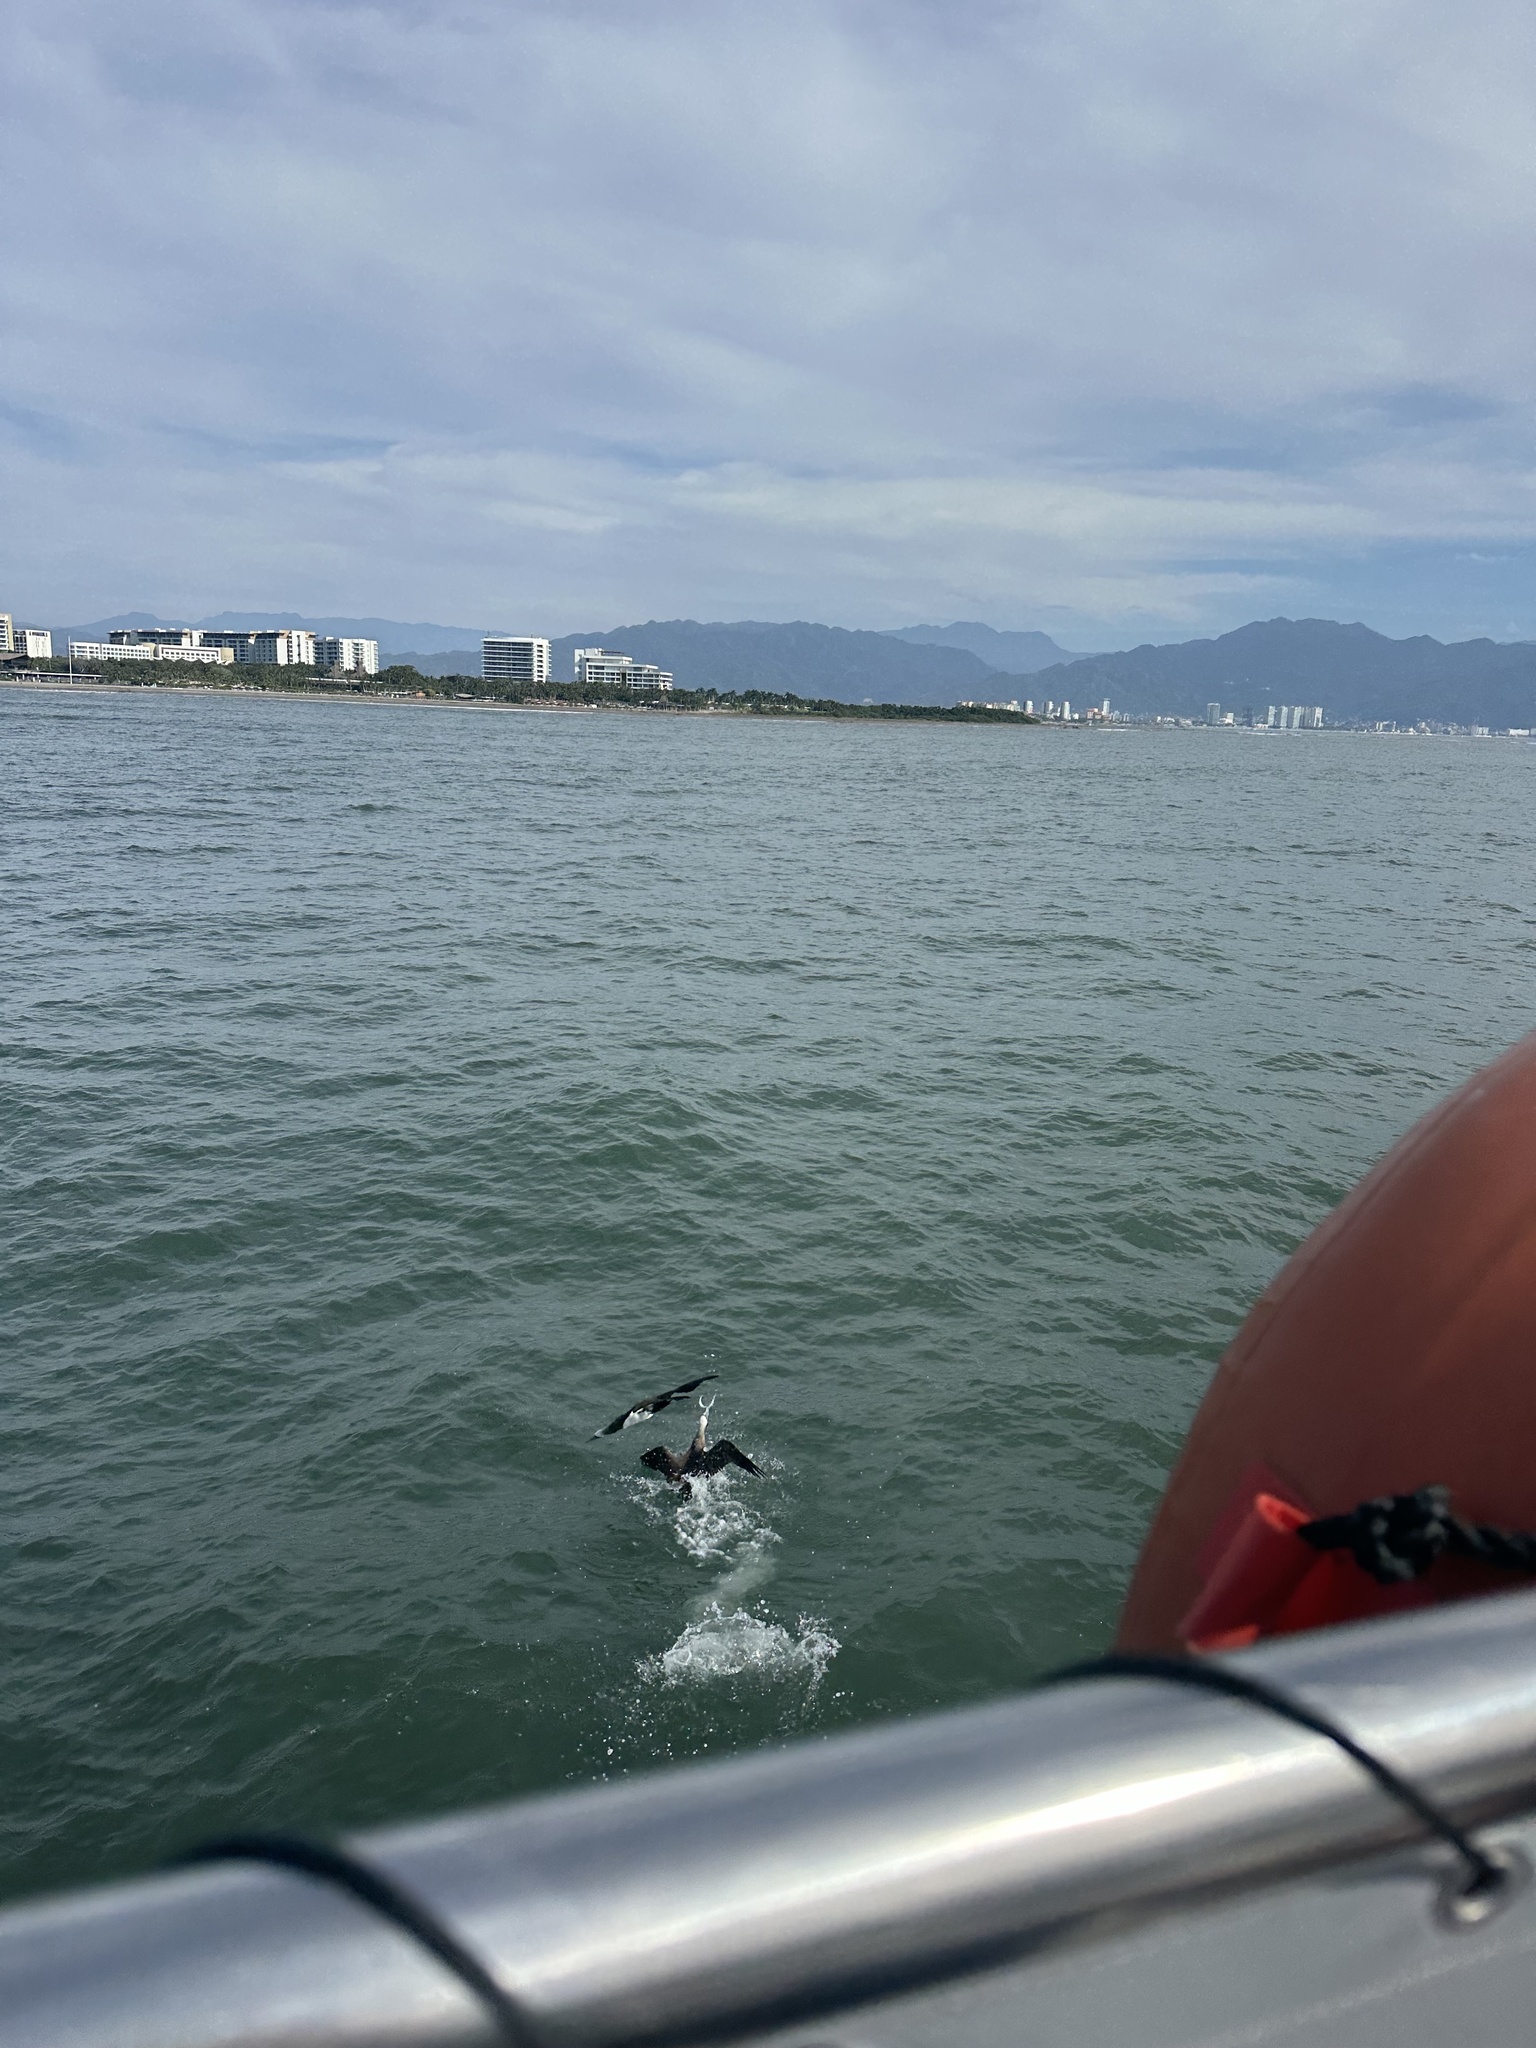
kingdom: Animalia
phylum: Chordata
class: Aves
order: Suliformes
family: Sulidae
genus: Sula
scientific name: Sula leucogaster
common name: Brown booby
